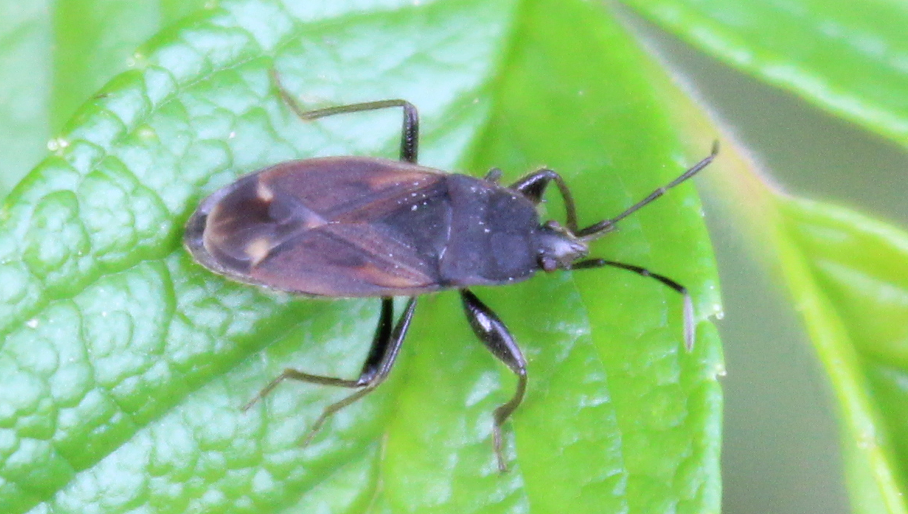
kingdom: Animalia
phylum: Arthropoda
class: Insecta
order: Hemiptera
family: Rhyparochromidae
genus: Eremocoris
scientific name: Eremocoris plebejus
